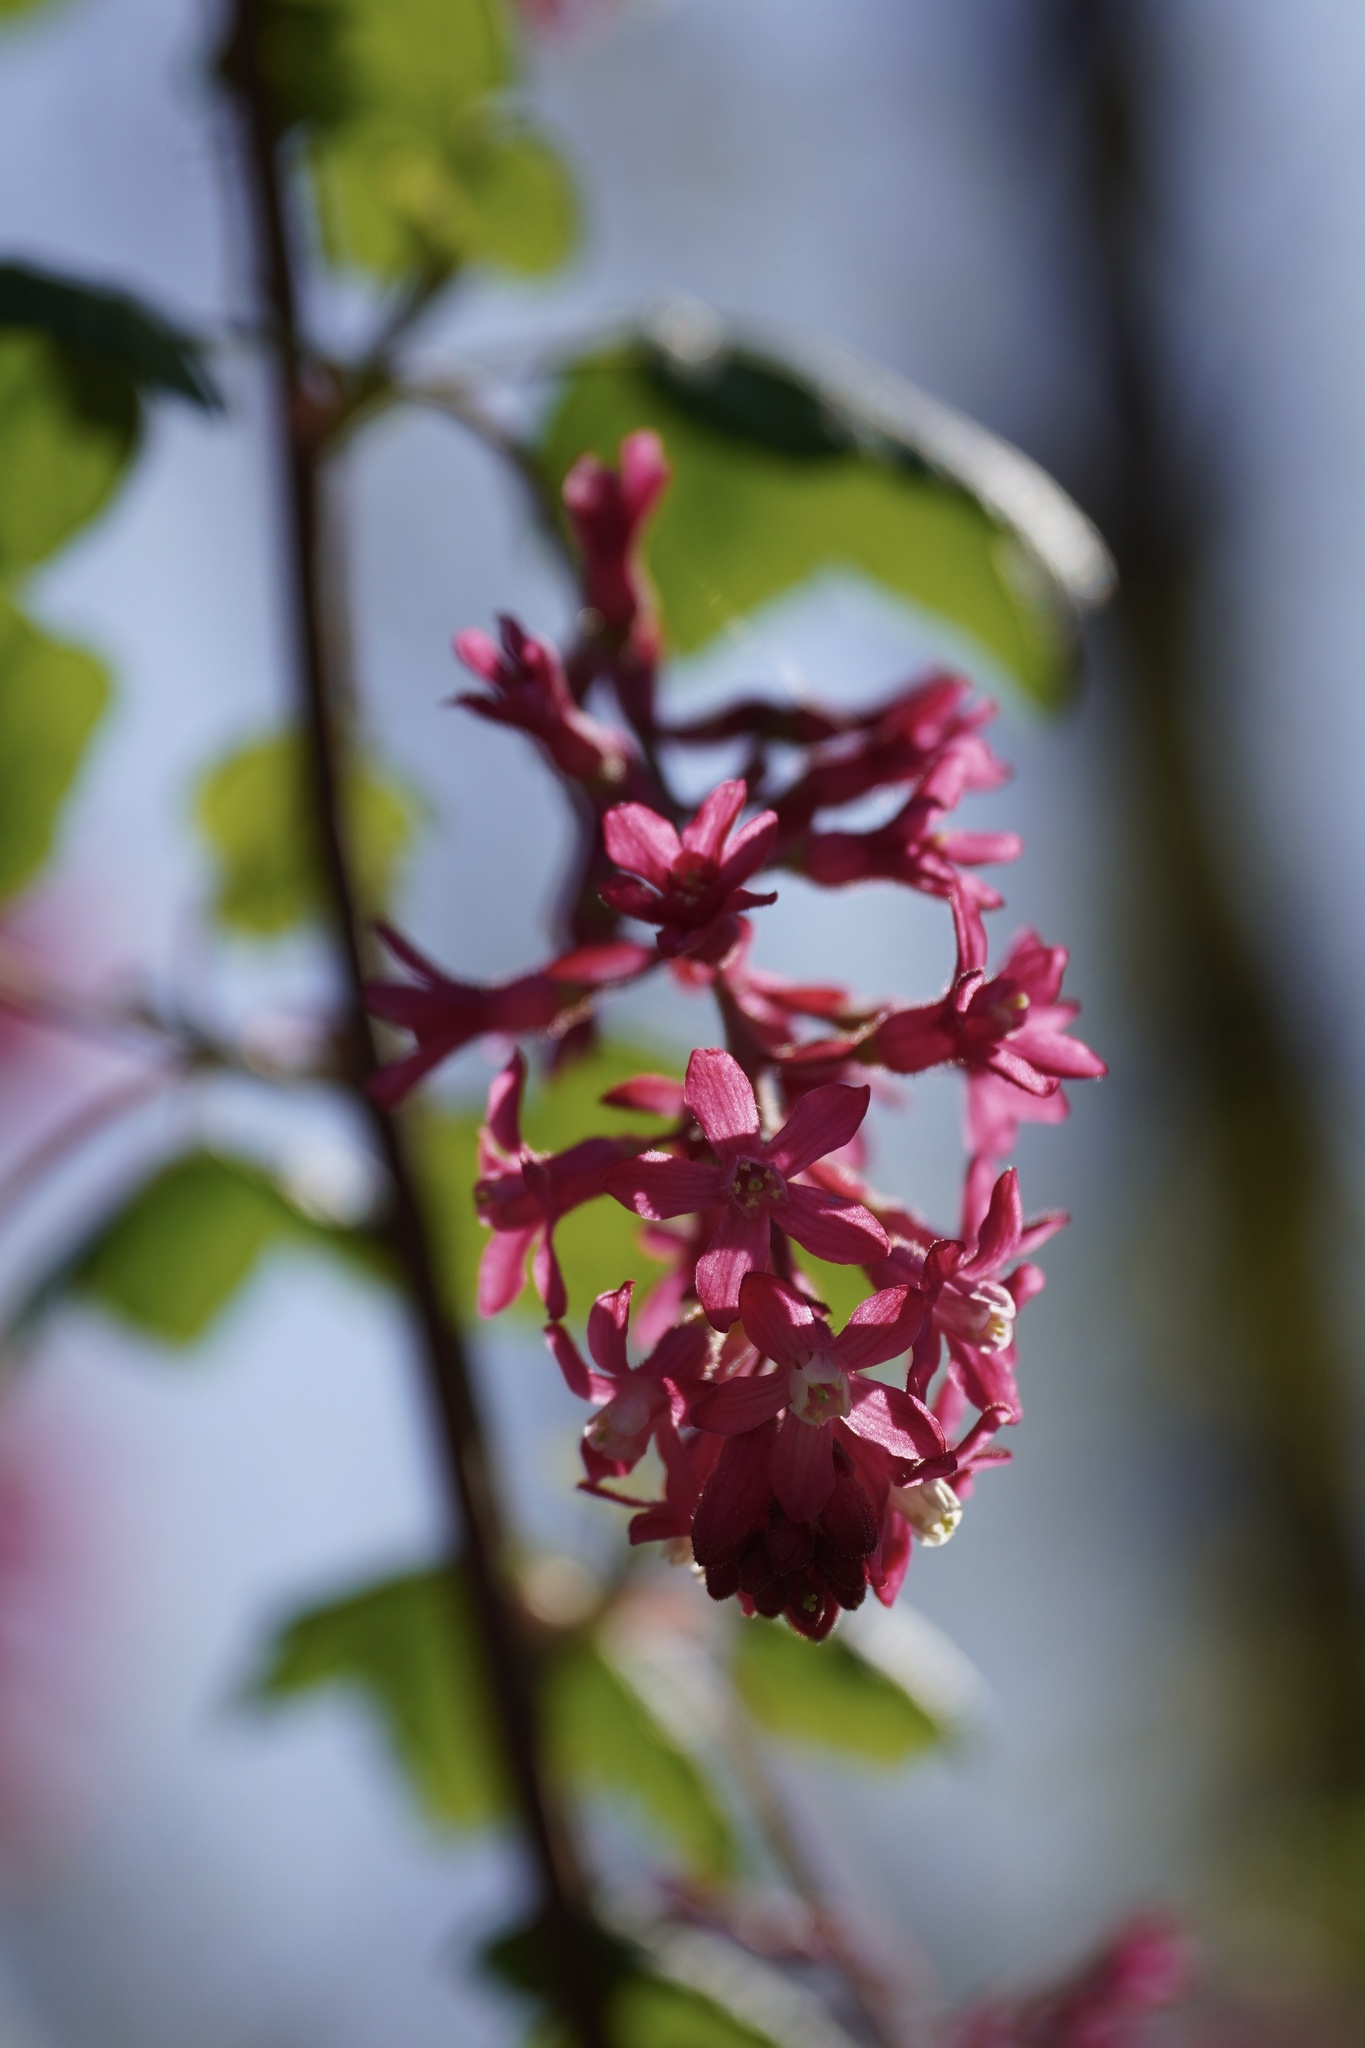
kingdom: Plantae
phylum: Tracheophyta
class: Magnoliopsida
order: Saxifragales
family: Grossulariaceae
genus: Ribes
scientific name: Ribes sanguineum
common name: Flowering currant
